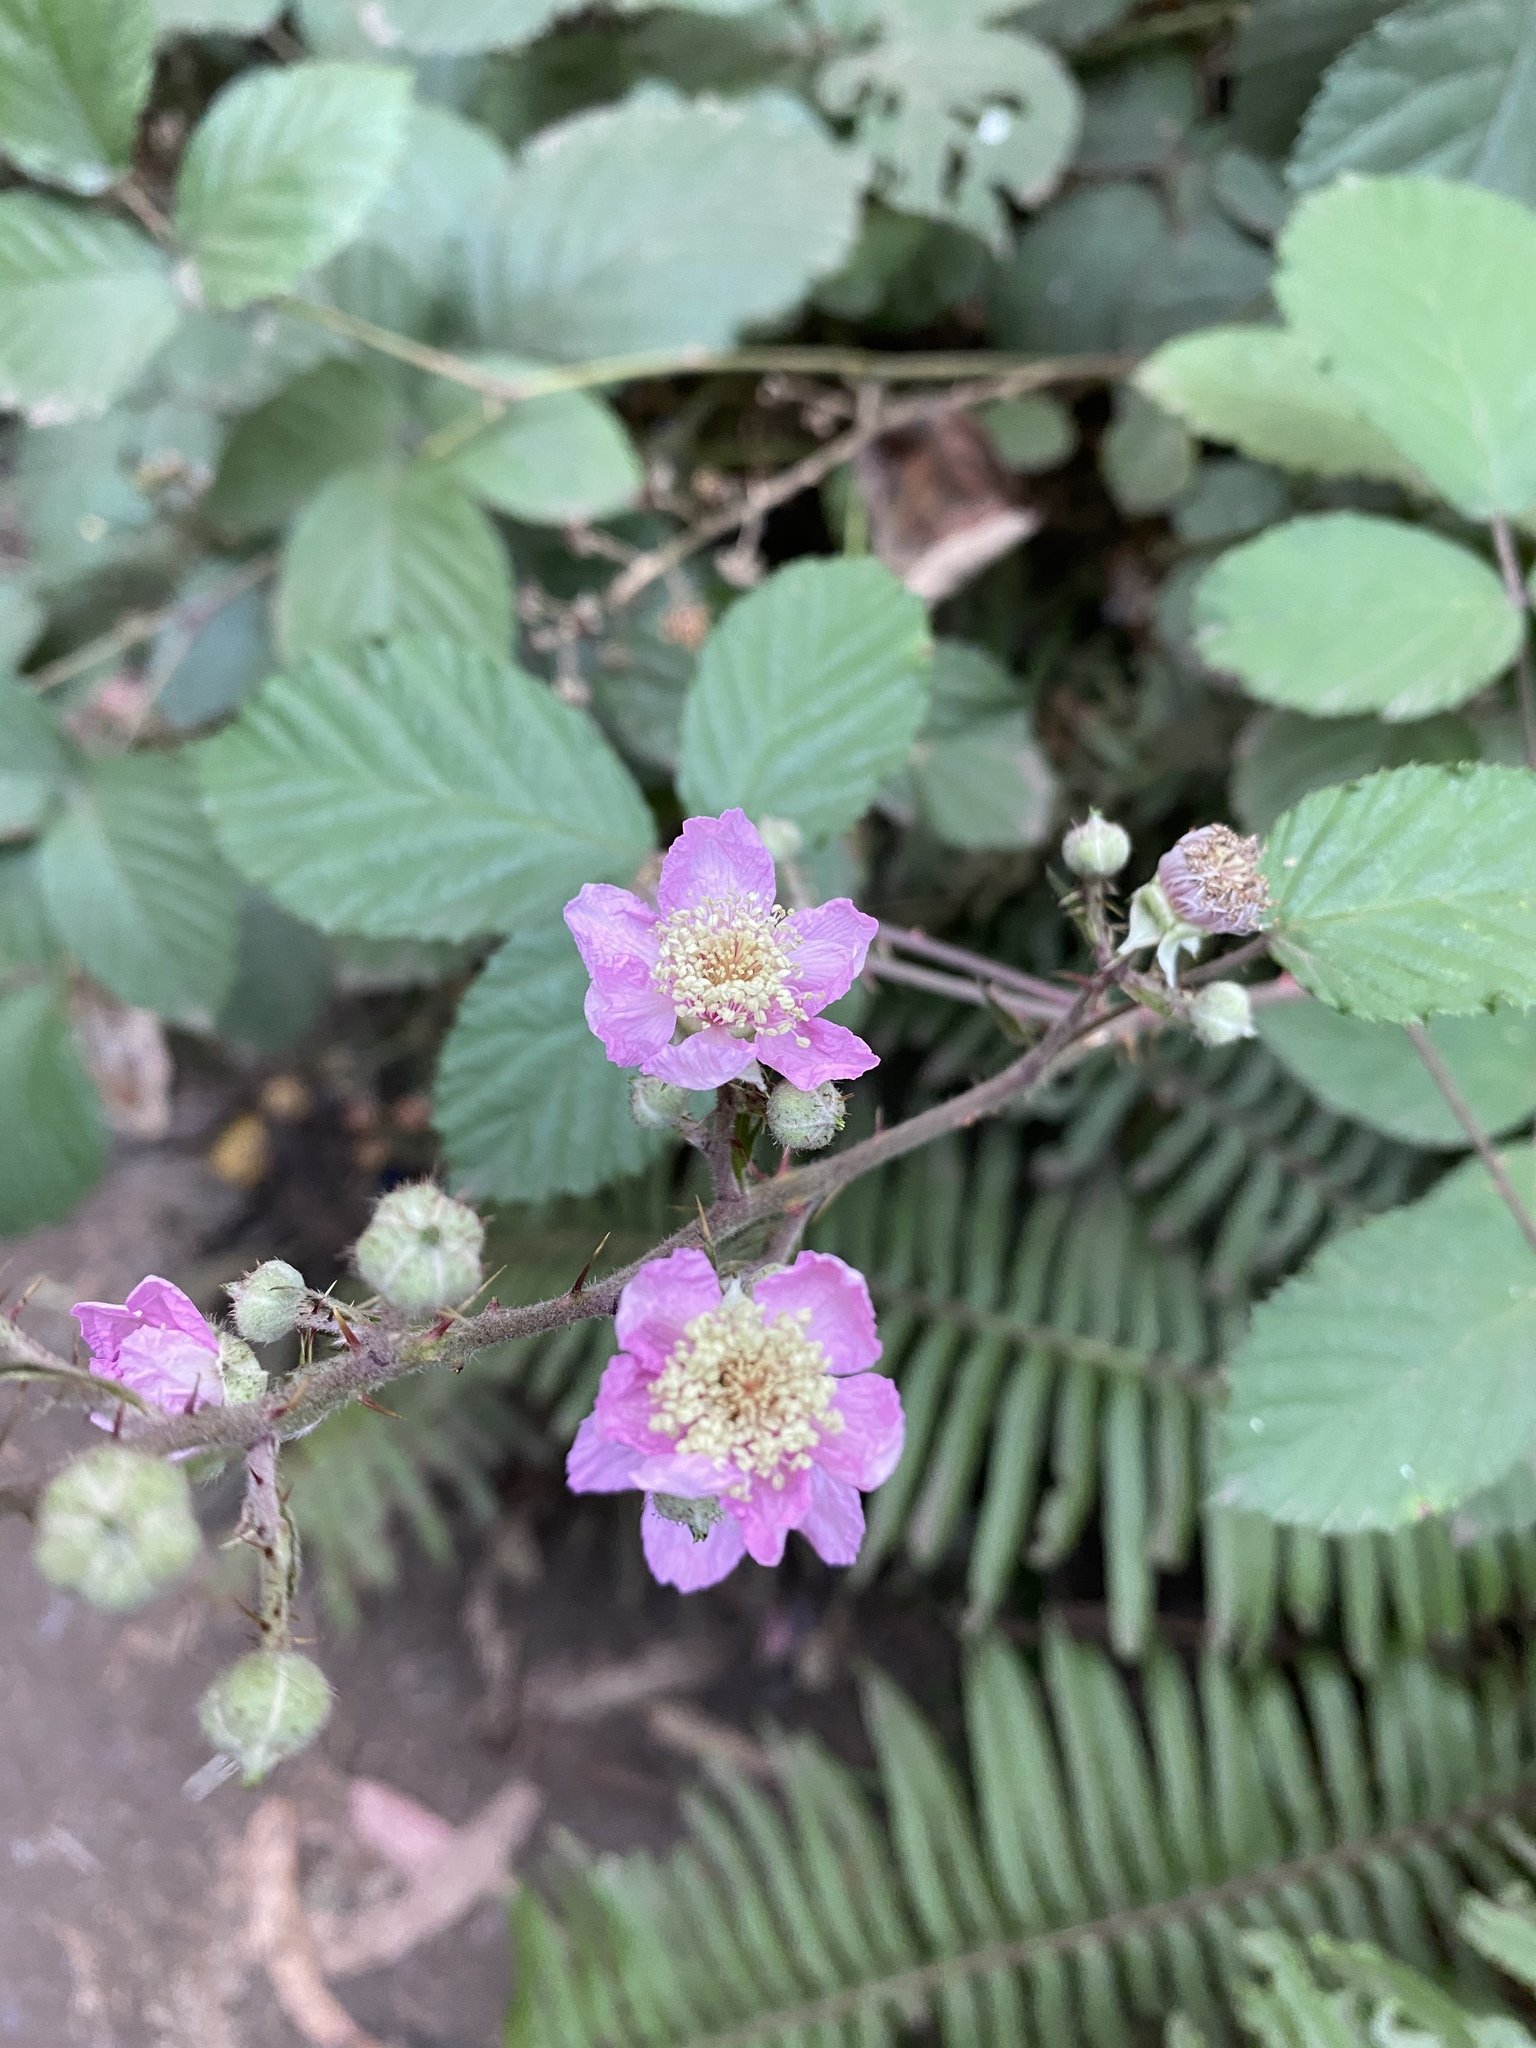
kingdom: Plantae
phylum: Tracheophyta
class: Magnoliopsida
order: Rosales
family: Rosaceae
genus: Rubus
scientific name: Rubus armeniacus
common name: Himalayan blackberry
